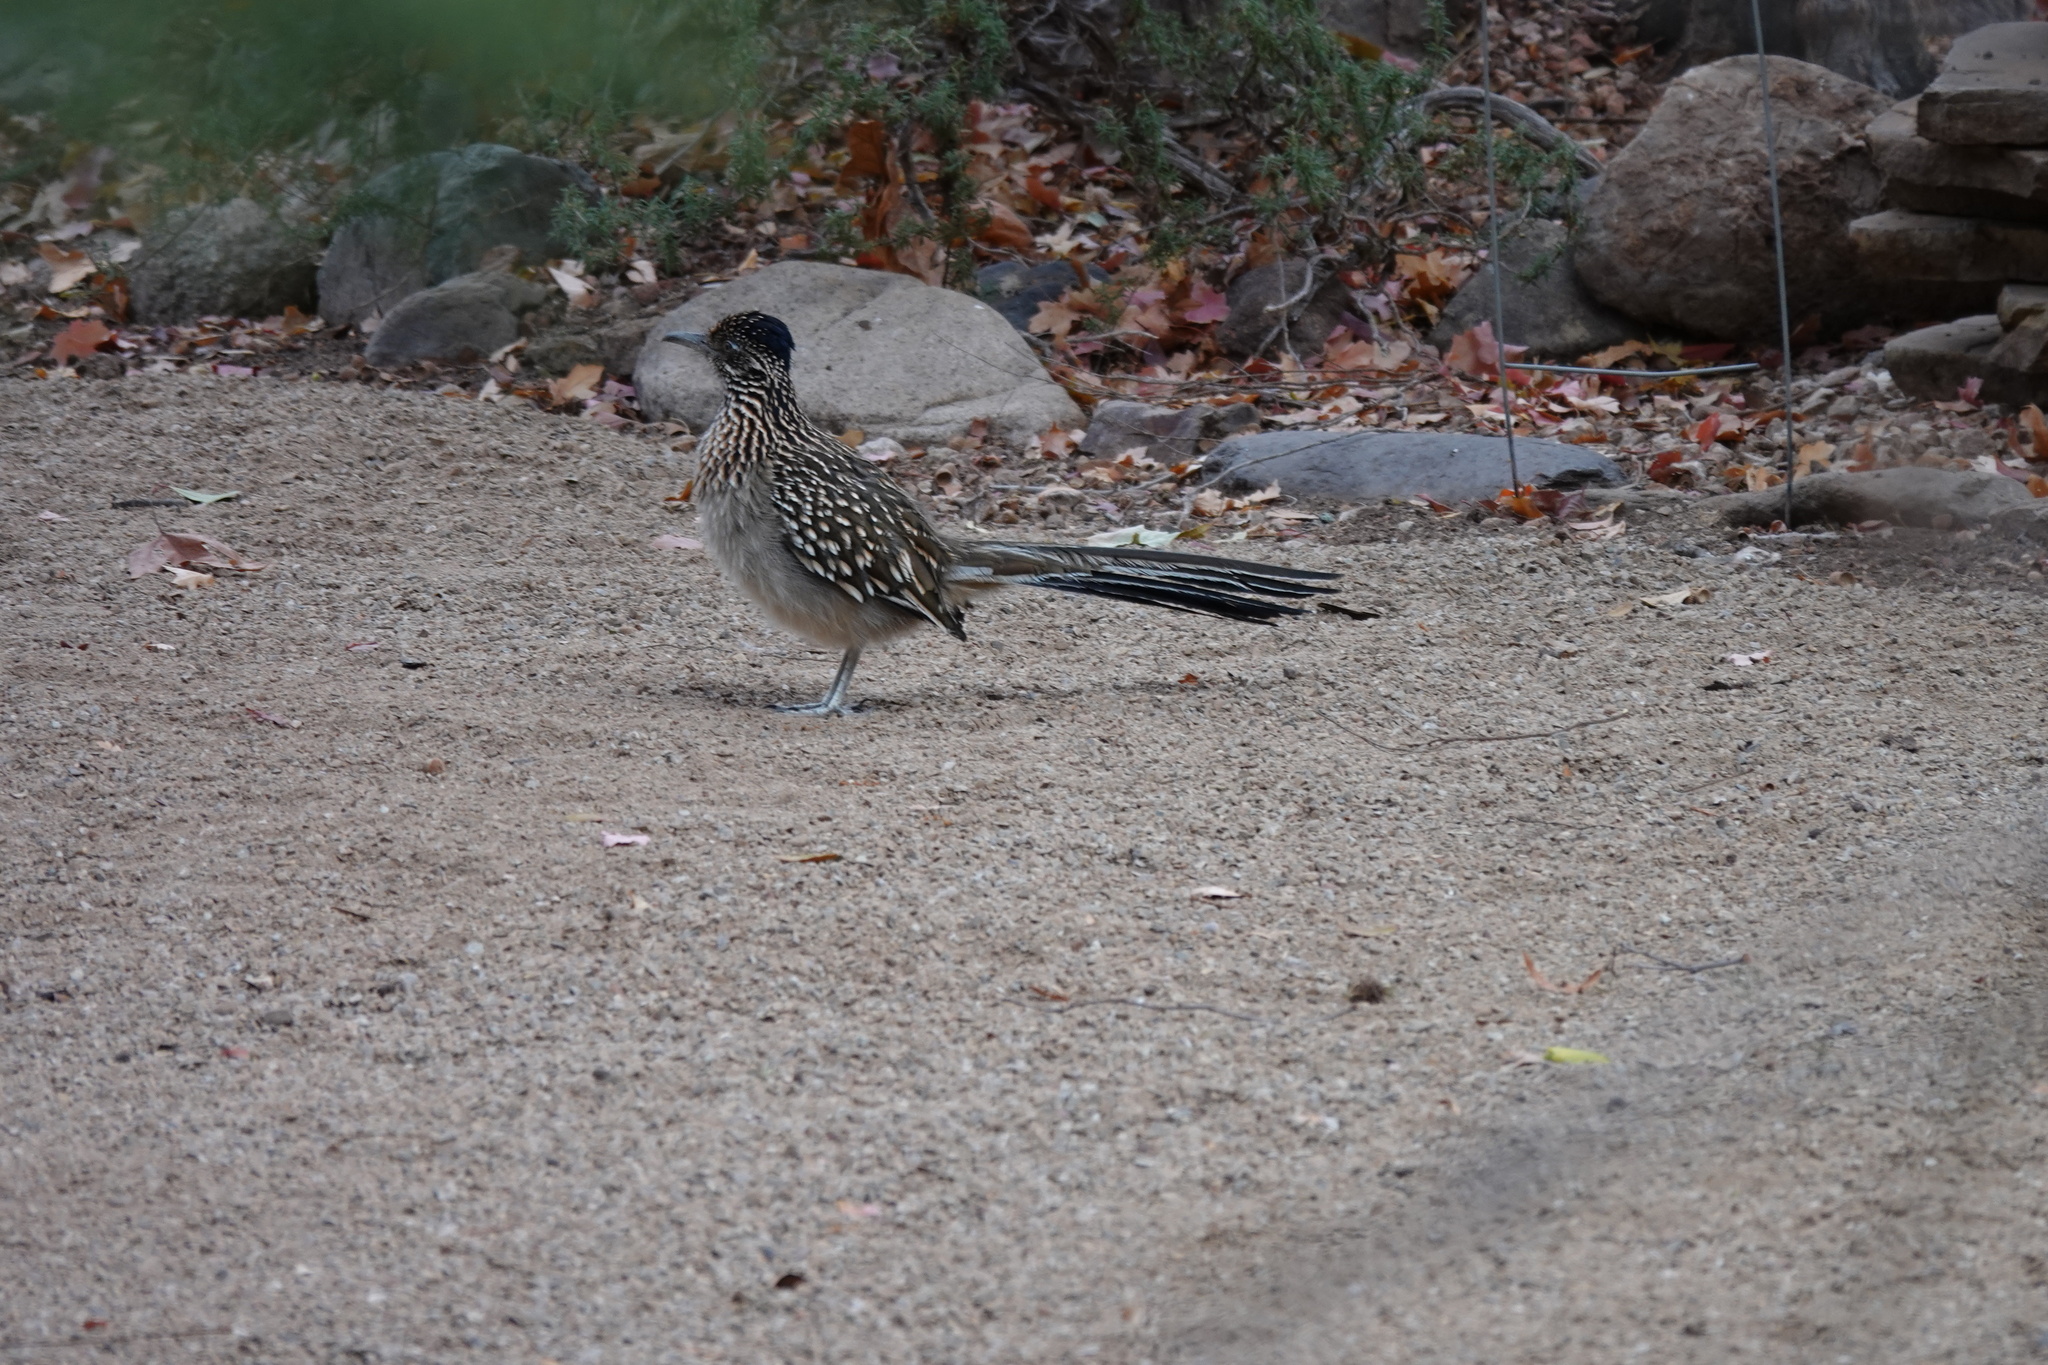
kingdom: Animalia
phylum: Chordata
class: Aves
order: Cuculiformes
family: Cuculidae
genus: Geococcyx
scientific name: Geococcyx californianus
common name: Greater roadrunner
